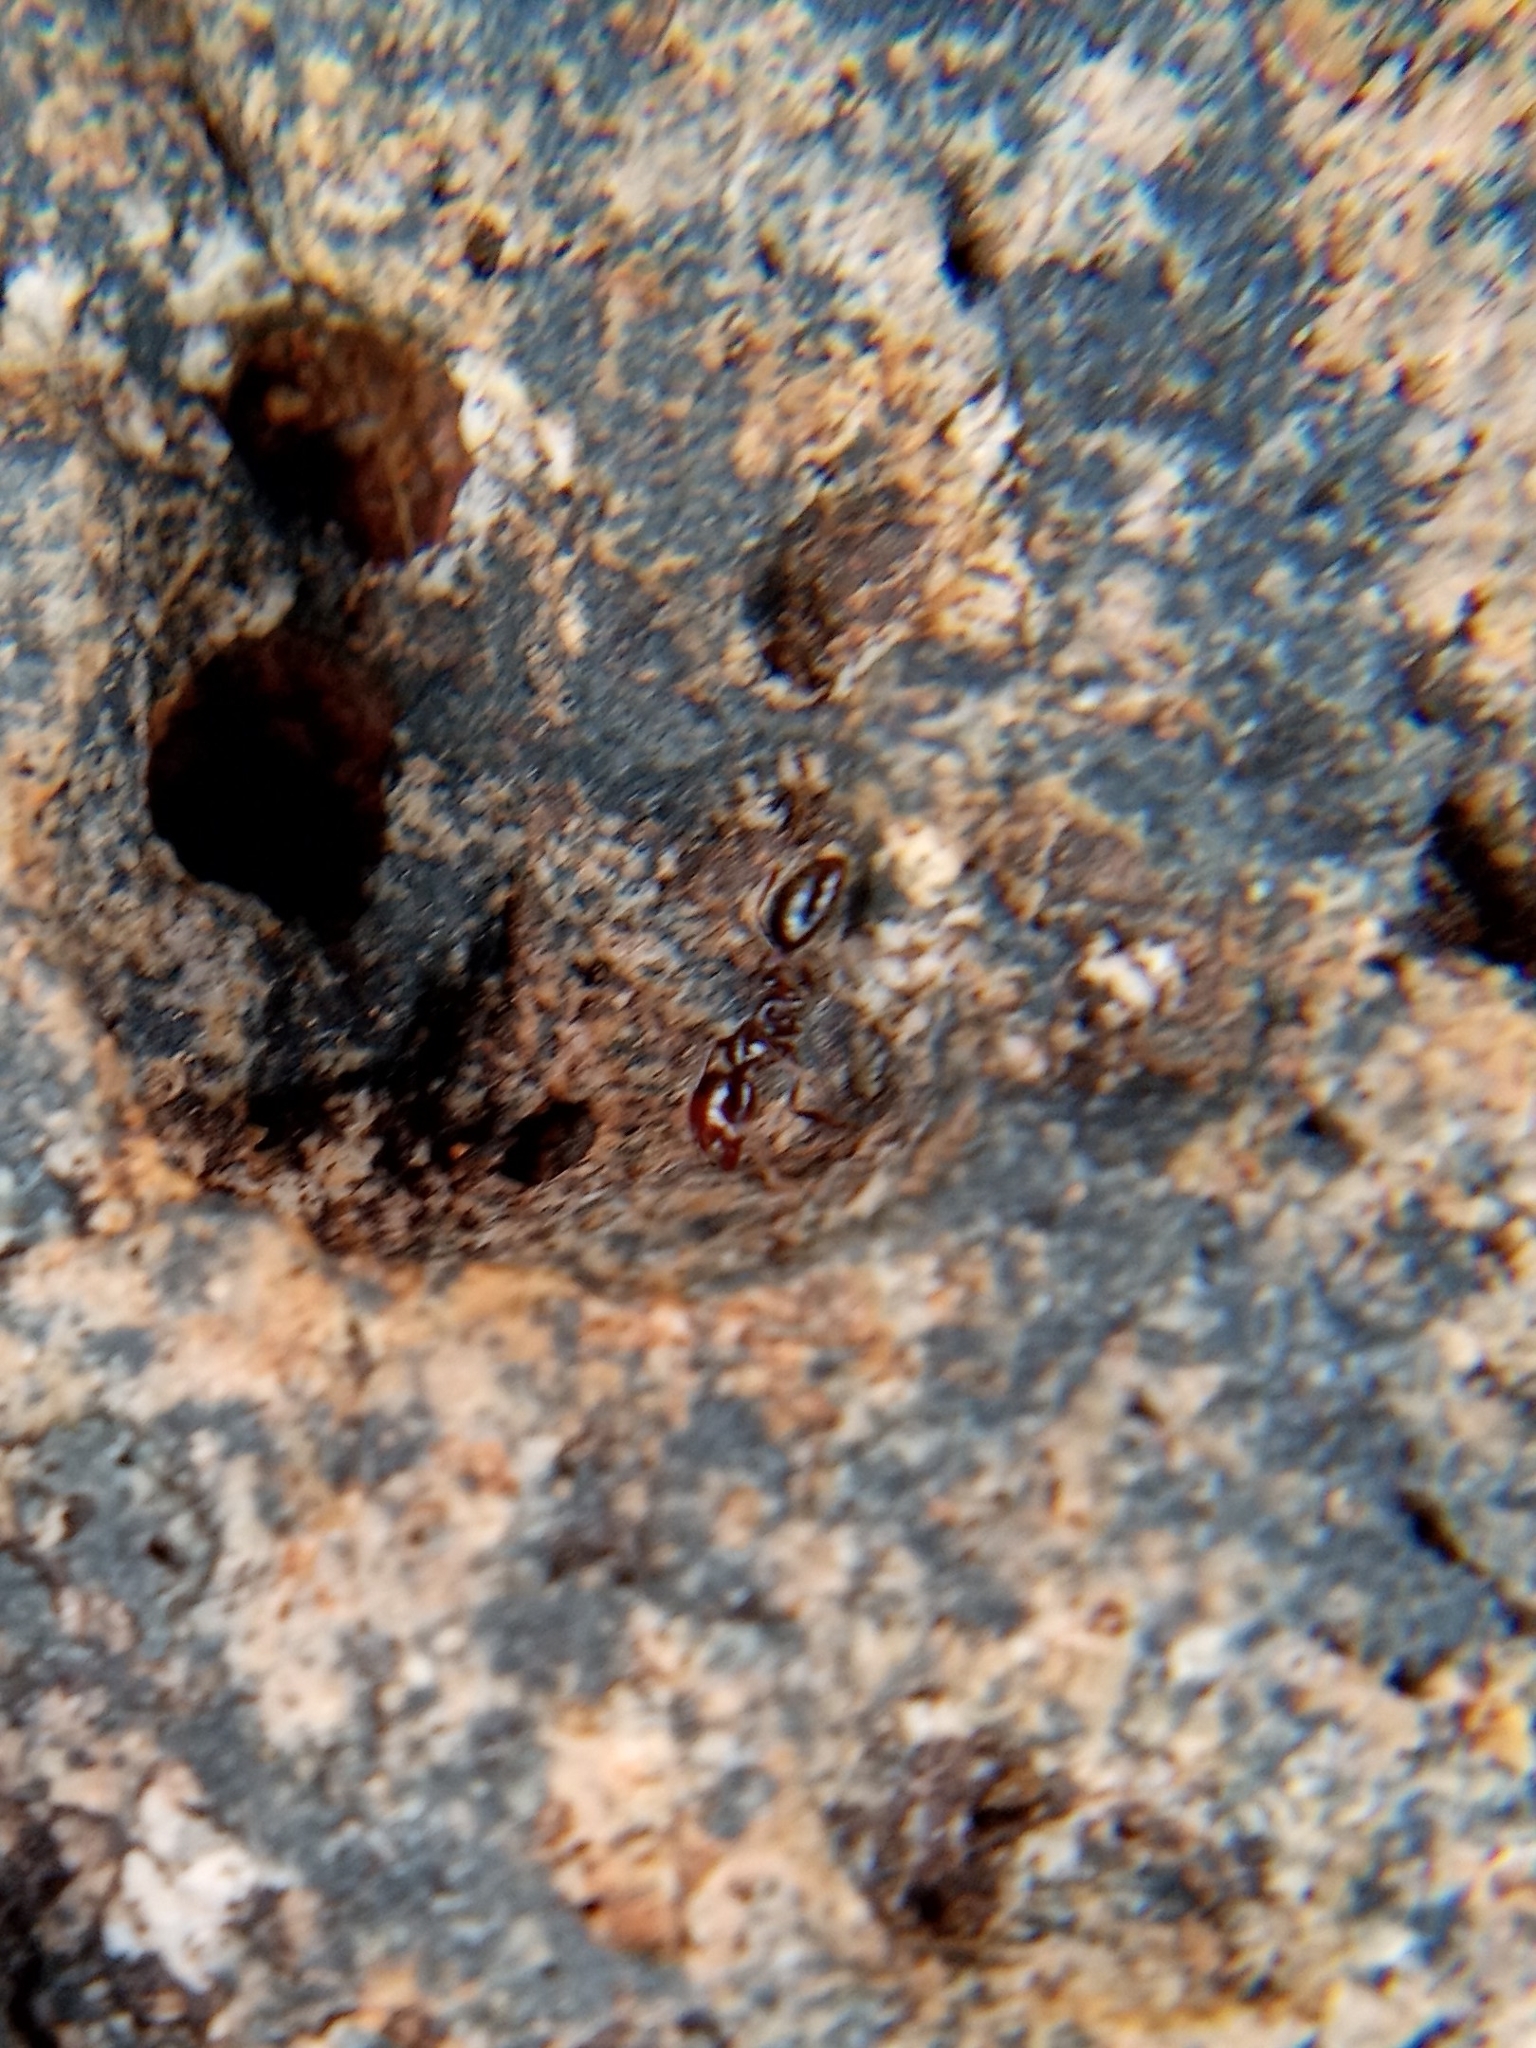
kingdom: Animalia
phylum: Arthropoda
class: Insecta
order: Hymenoptera
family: Formicidae
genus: Solenopsis
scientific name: Solenopsis xyloni
